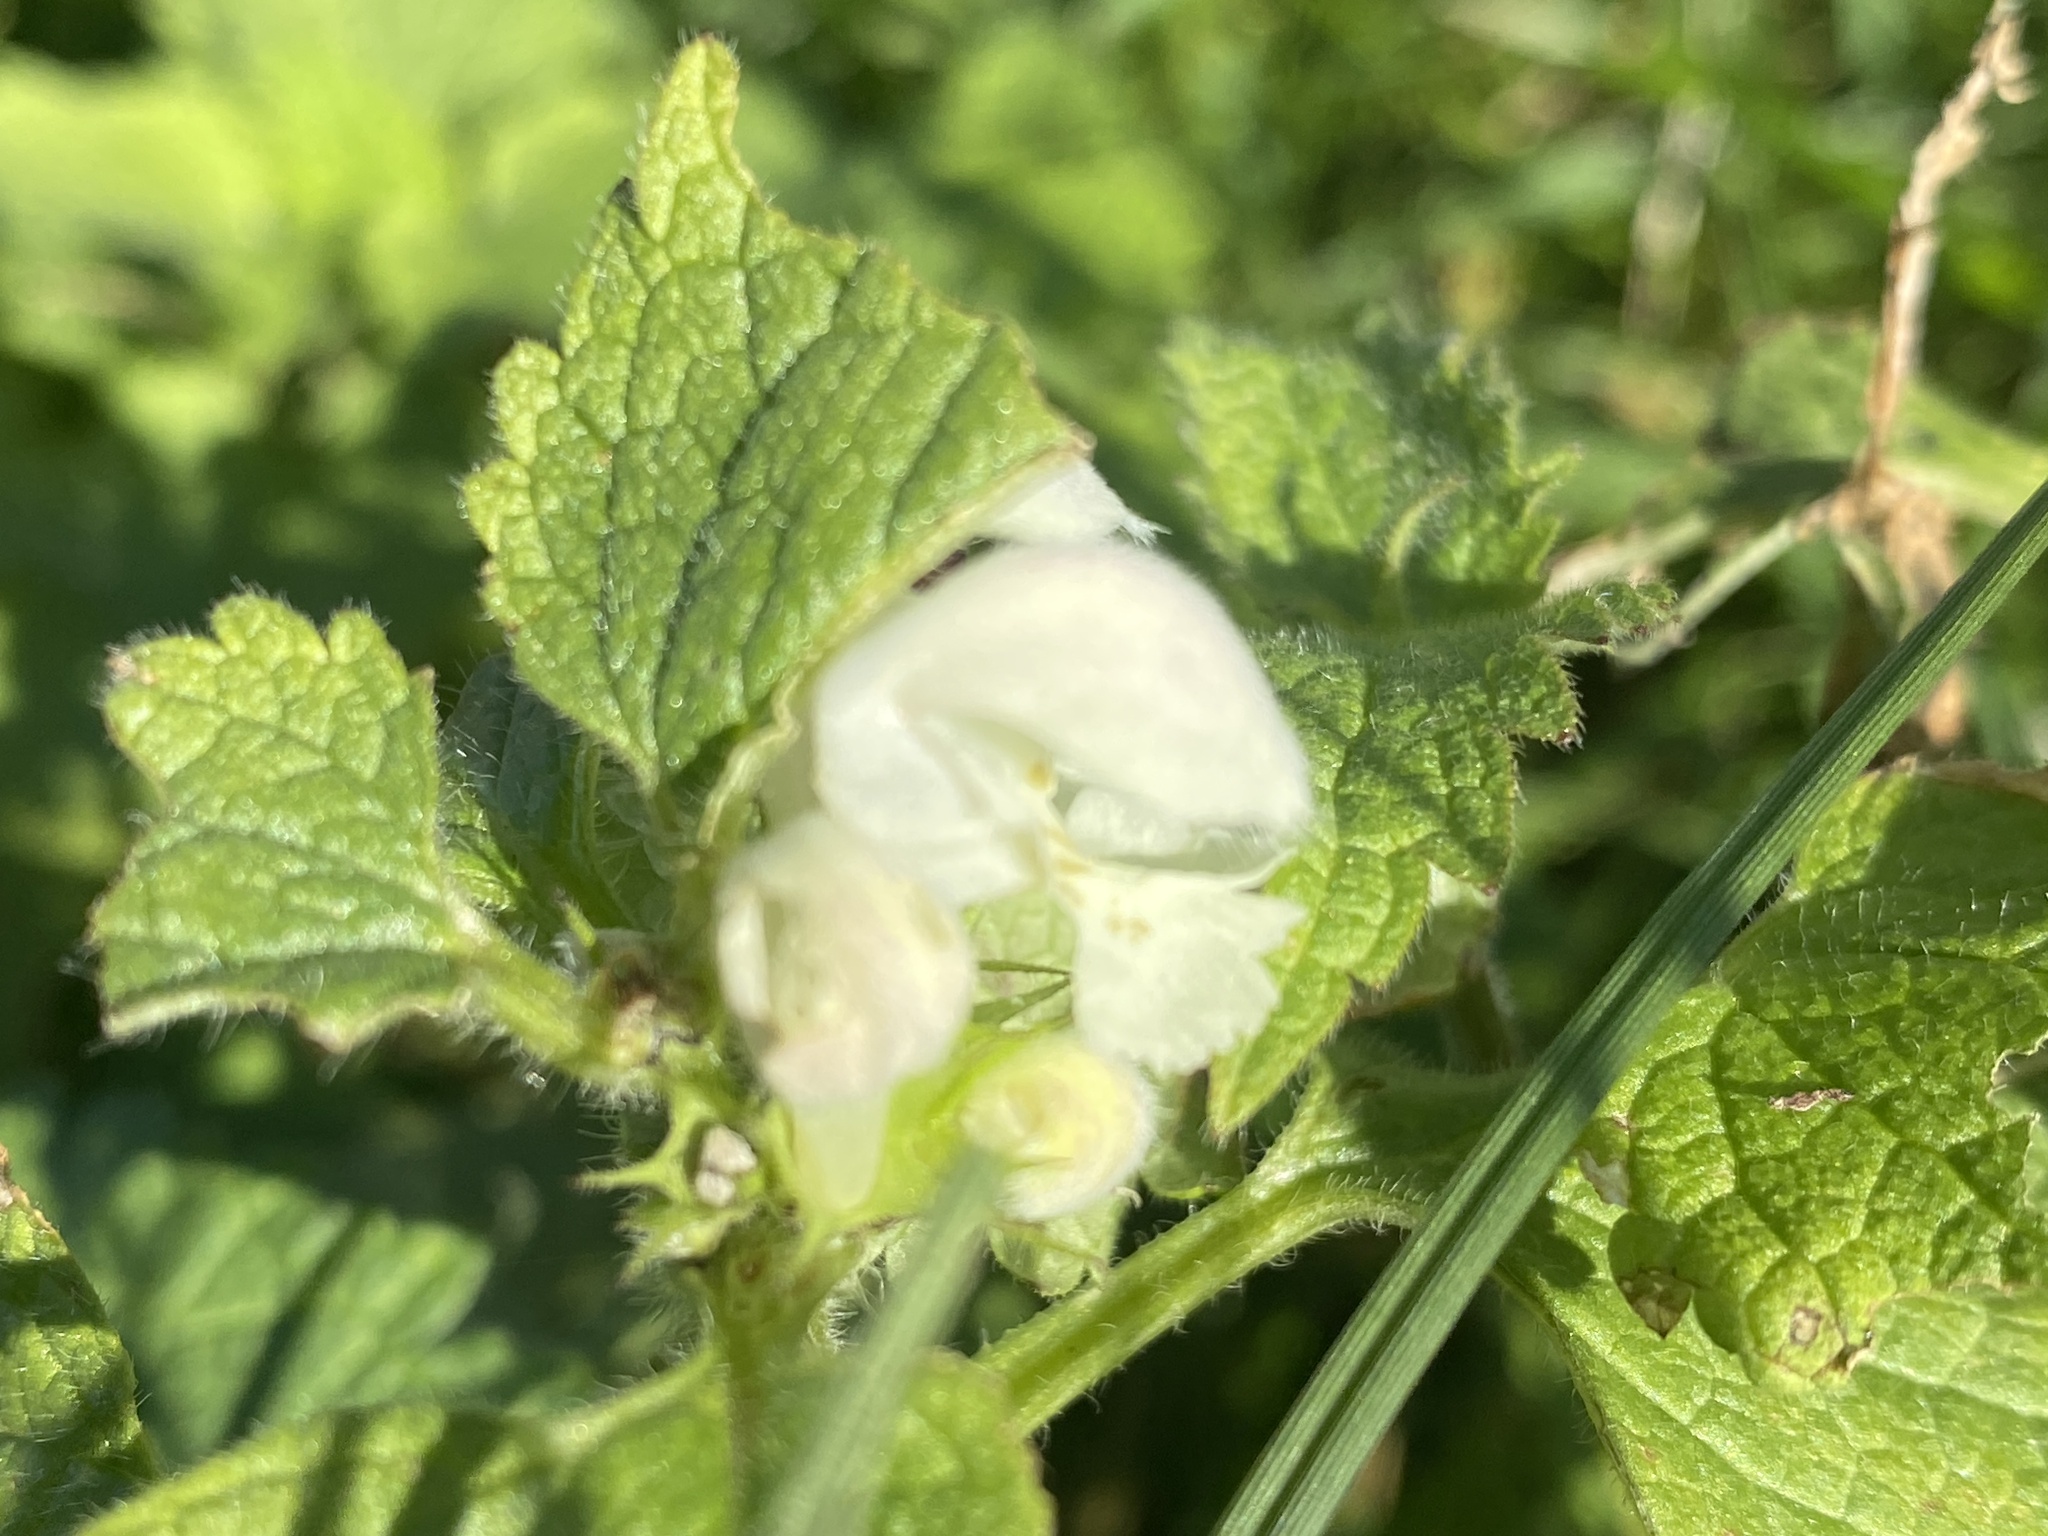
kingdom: Plantae
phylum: Tracheophyta
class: Magnoliopsida
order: Lamiales
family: Lamiaceae
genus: Lamium
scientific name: Lamium album
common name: White dead-nettle
